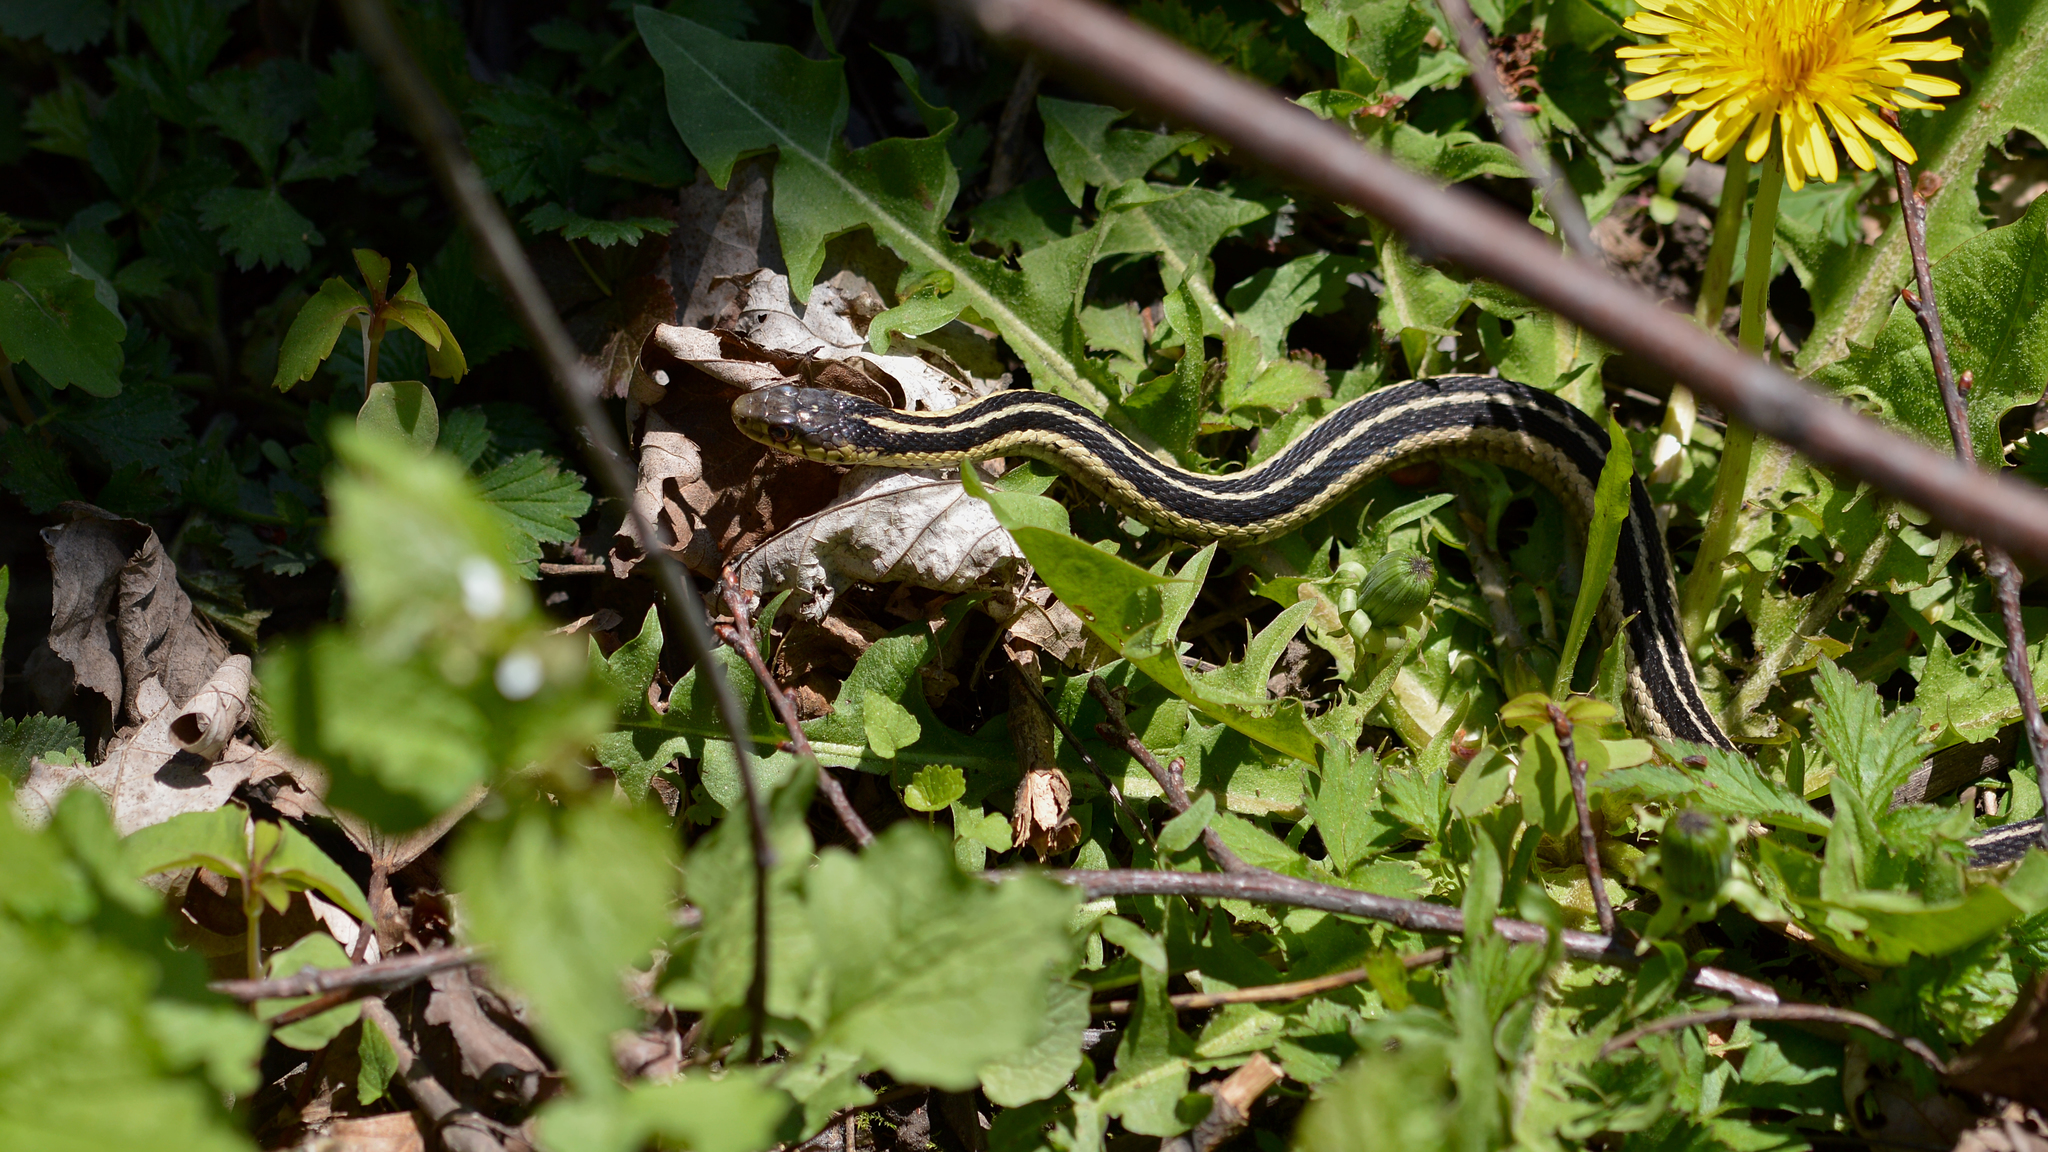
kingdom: Animalia
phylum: Chordata
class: Squamata
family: Colubridae
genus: Thamnophis
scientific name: Thamnophis sirtalis
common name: Common garter snake
